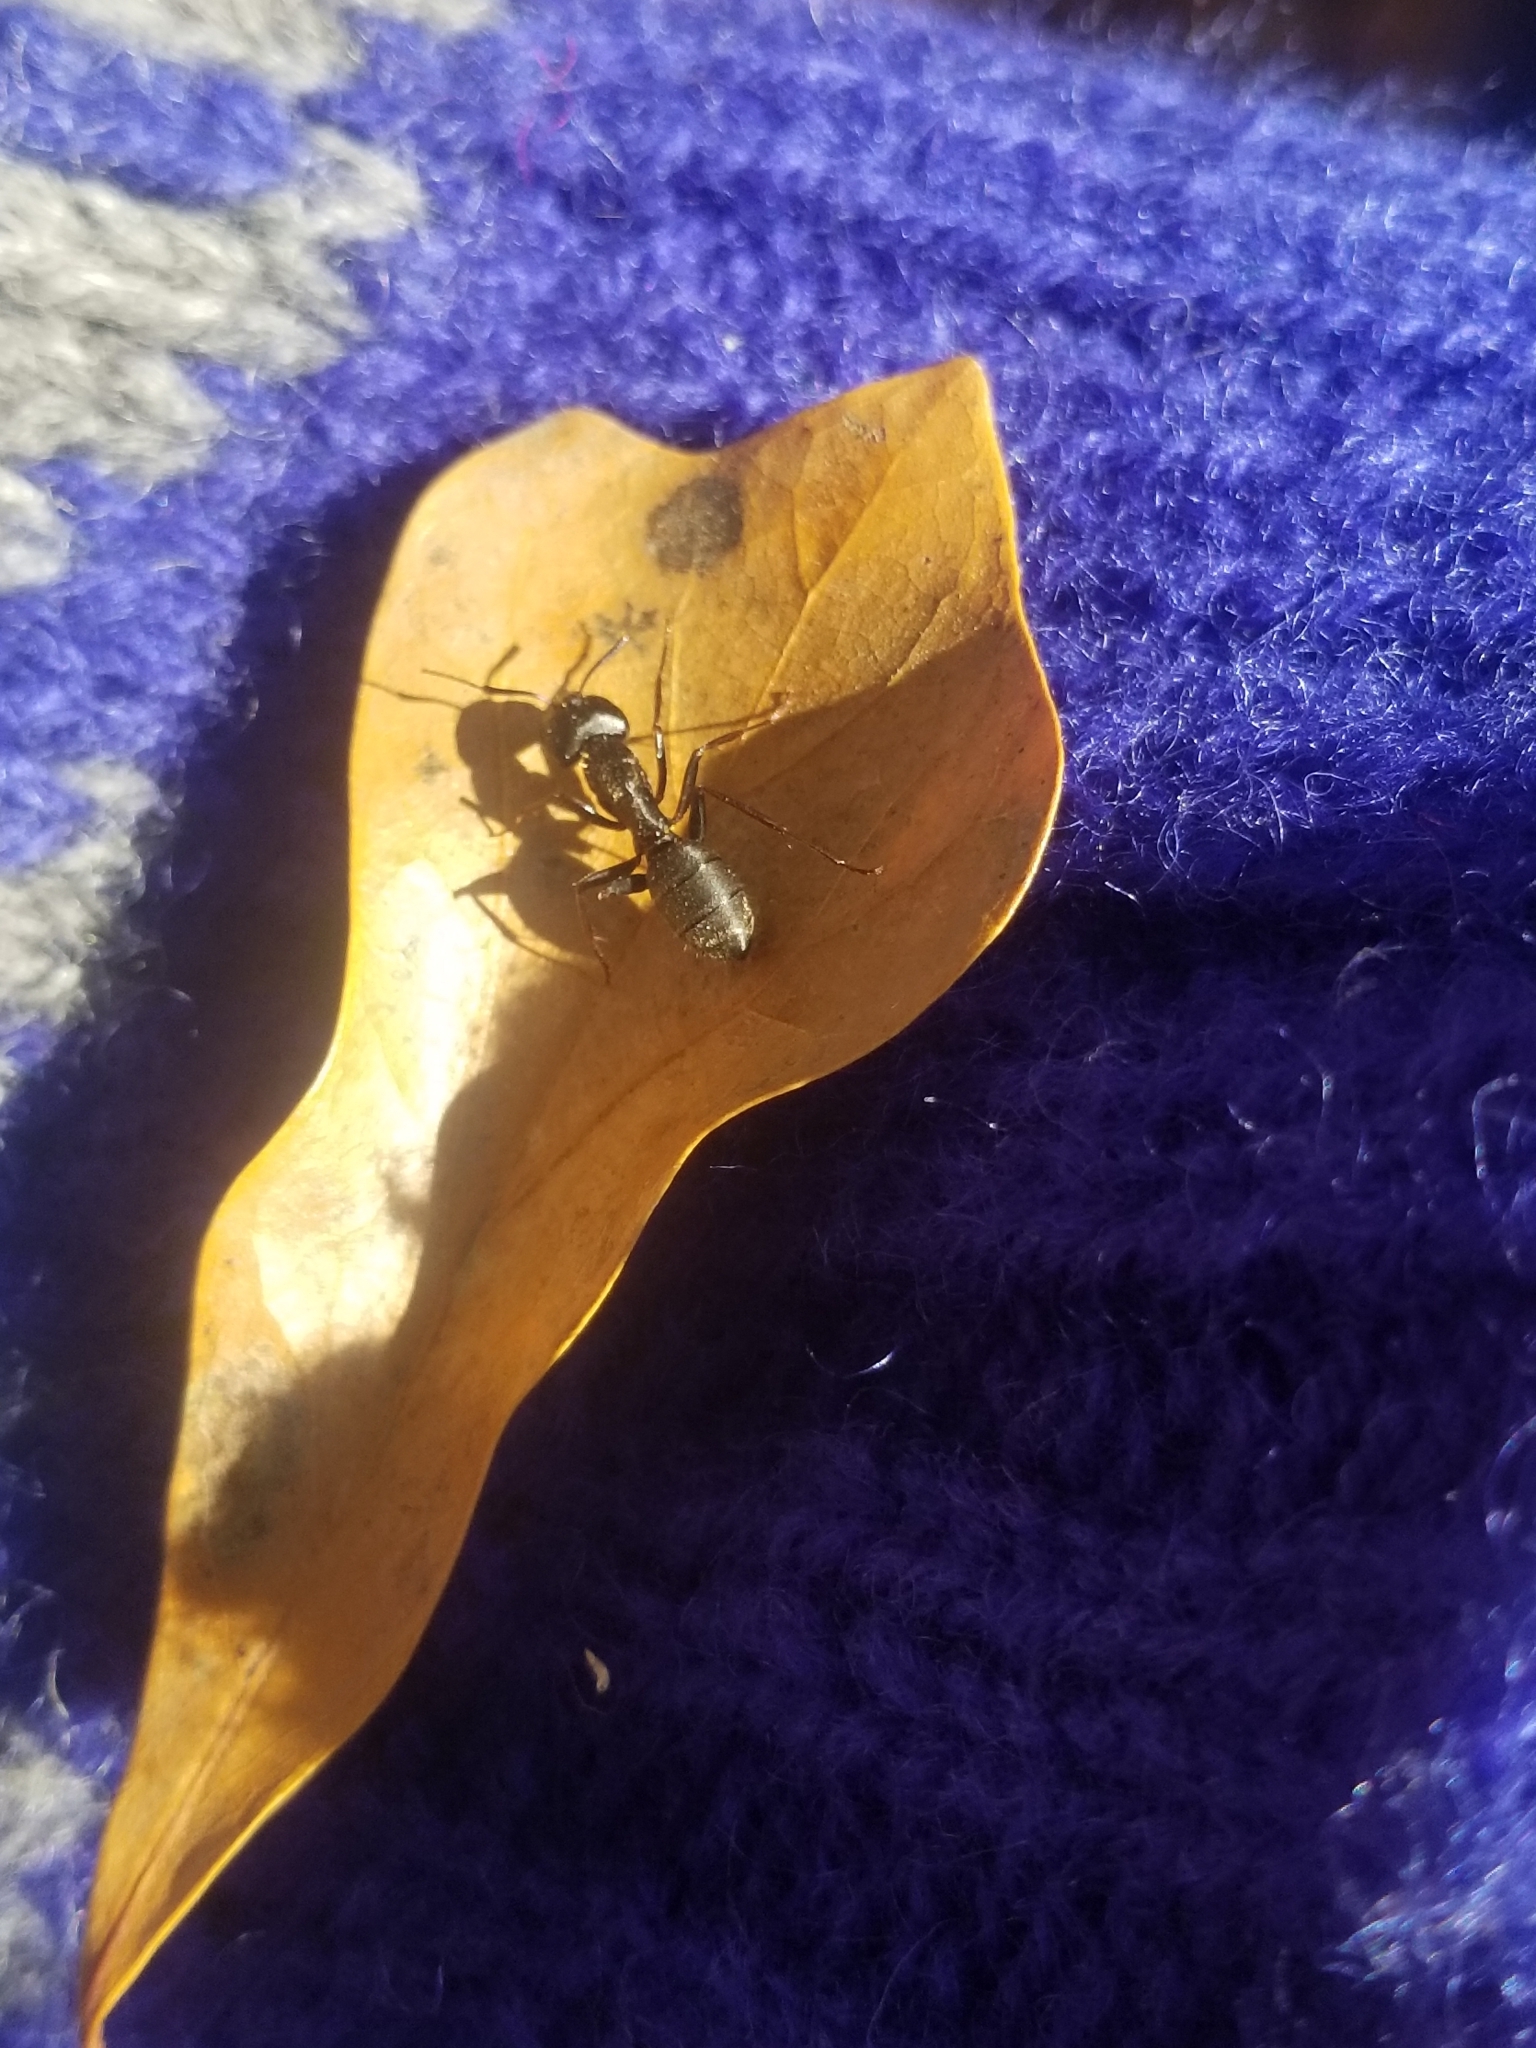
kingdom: Animalia
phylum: Arthropoda
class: Insecta
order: Hymenoptera
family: Formicidae
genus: Camponotus
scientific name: Camponotus pennsylvanicus
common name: Black carpenter ant
